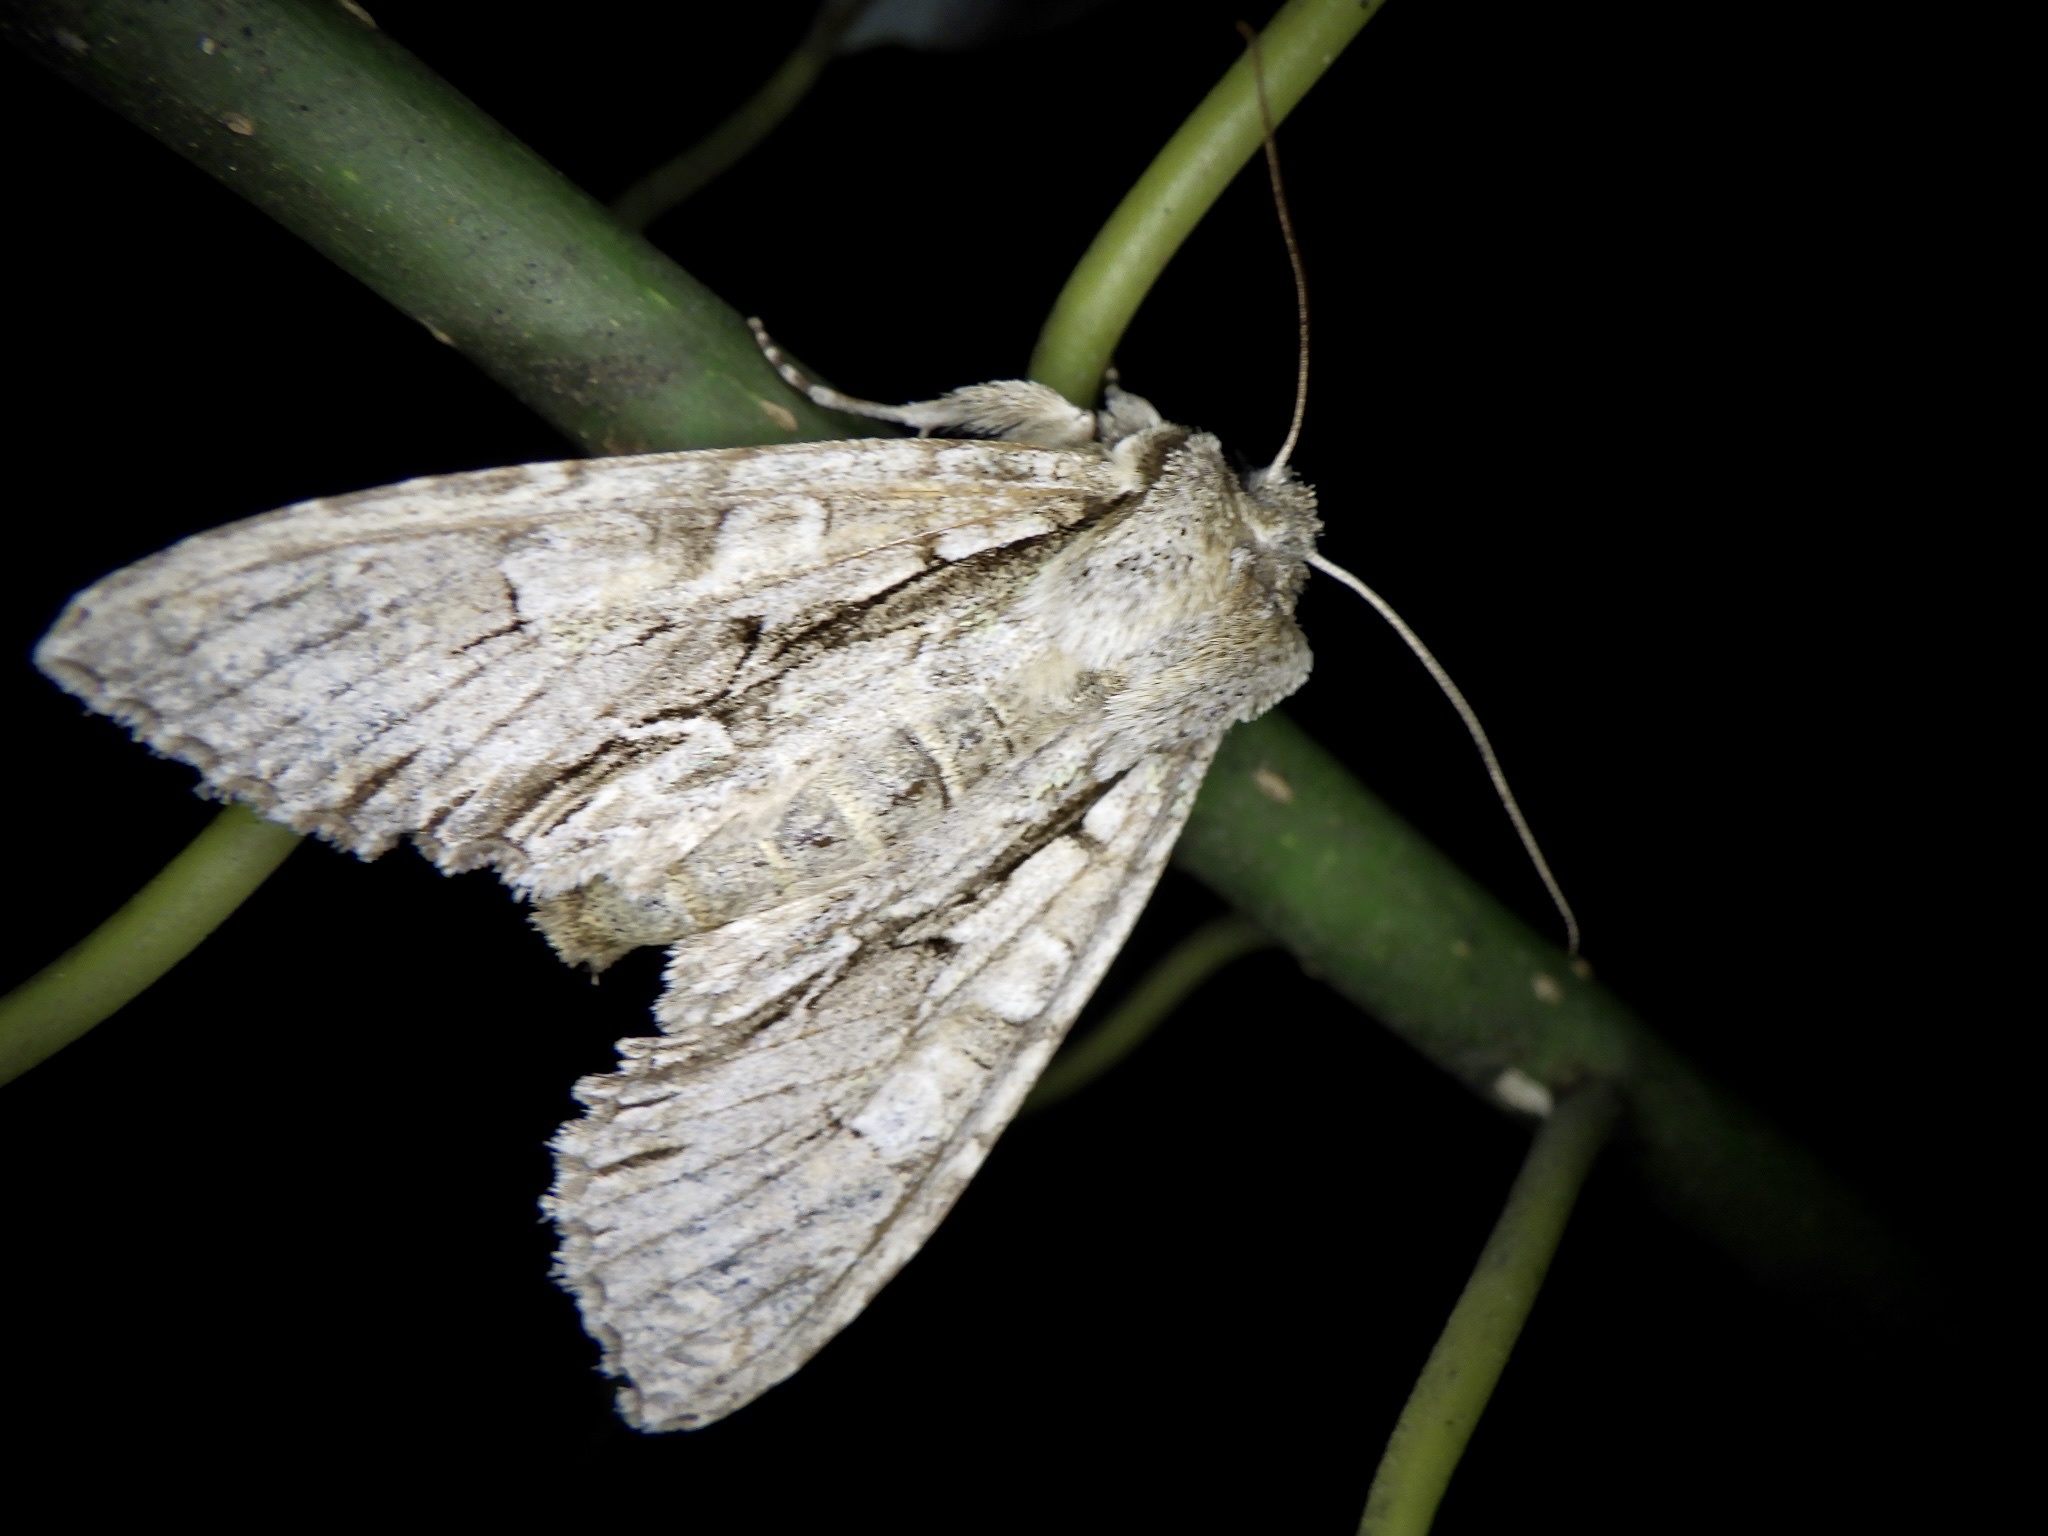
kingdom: Animalia
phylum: Arthropoda
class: Insecta
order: Lepidoptera
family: Noctuidae
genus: Meganephria
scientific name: Meganephria
